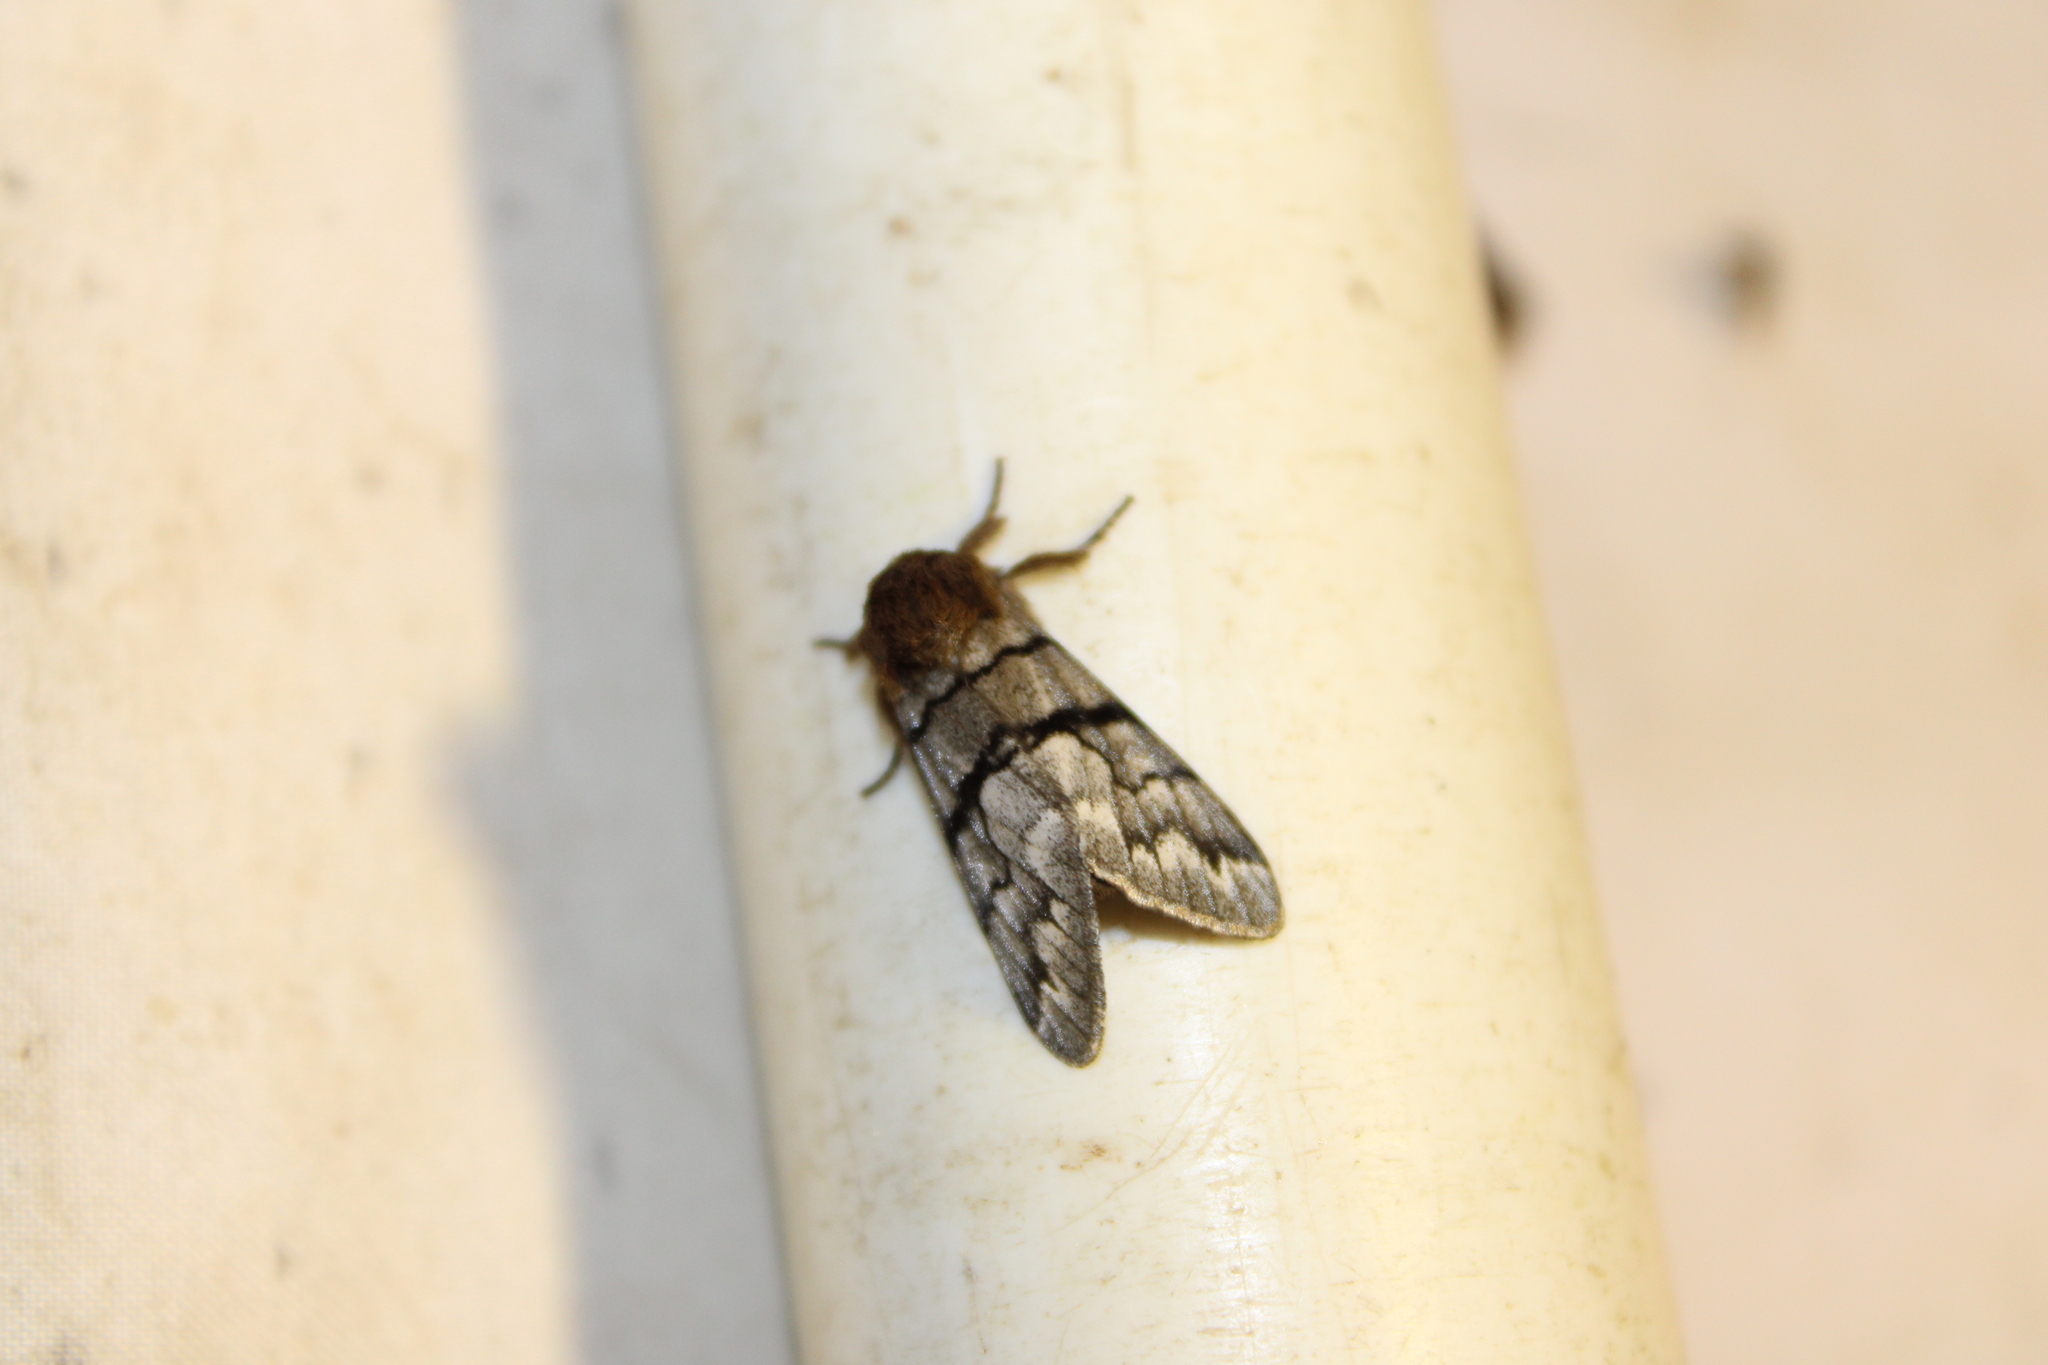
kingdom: Animalia
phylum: Arthropoda
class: Insecta
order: Lepidoptera
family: Noctuidae
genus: Panthea
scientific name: Panthea furcilla
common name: Eastern panthea moth
